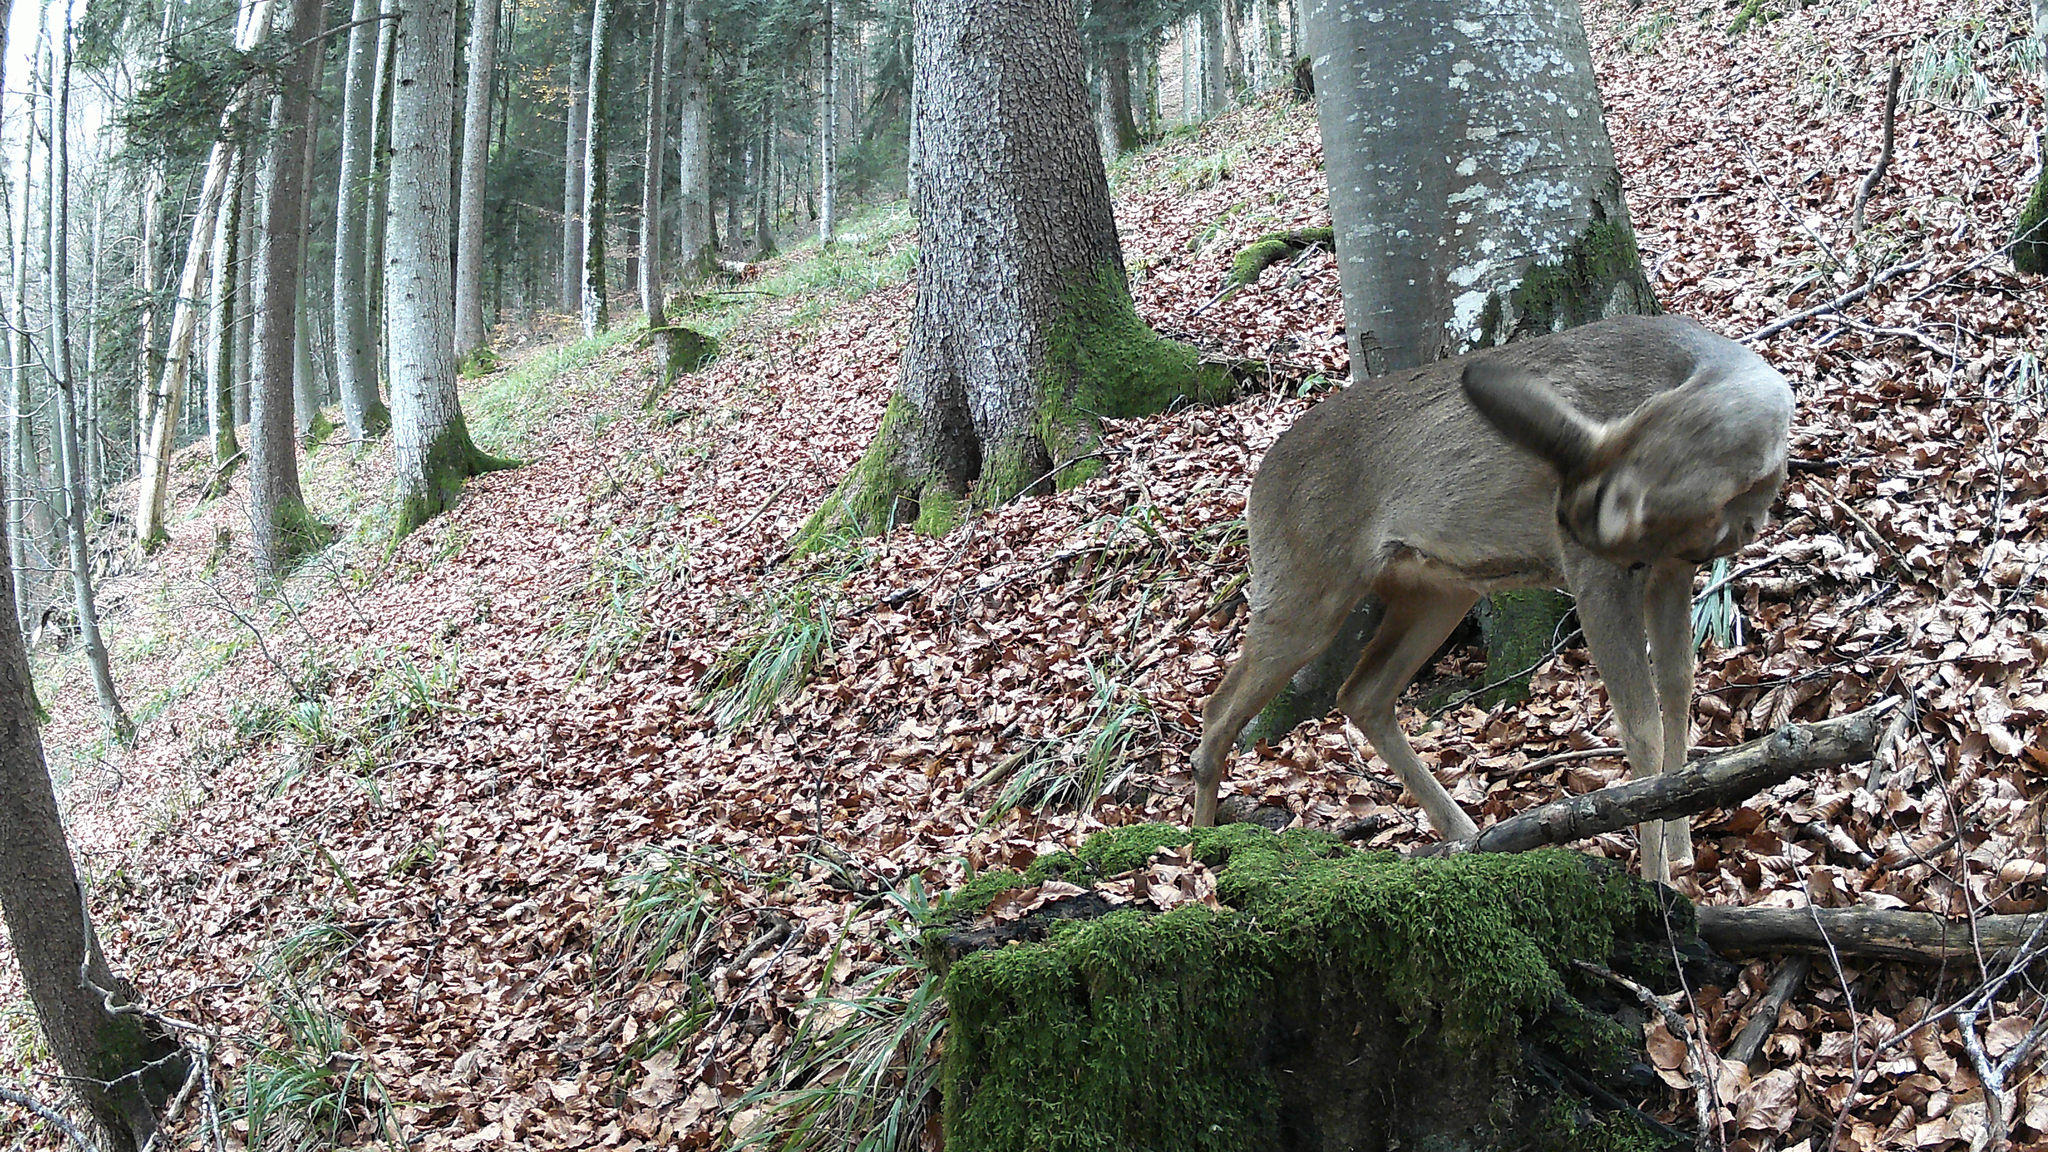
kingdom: Animalia
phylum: Chordata
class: Mammalia
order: Artiodactyla
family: Cervidae
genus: Capreolus
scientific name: Capreolus capreolus
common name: Western roe deer
